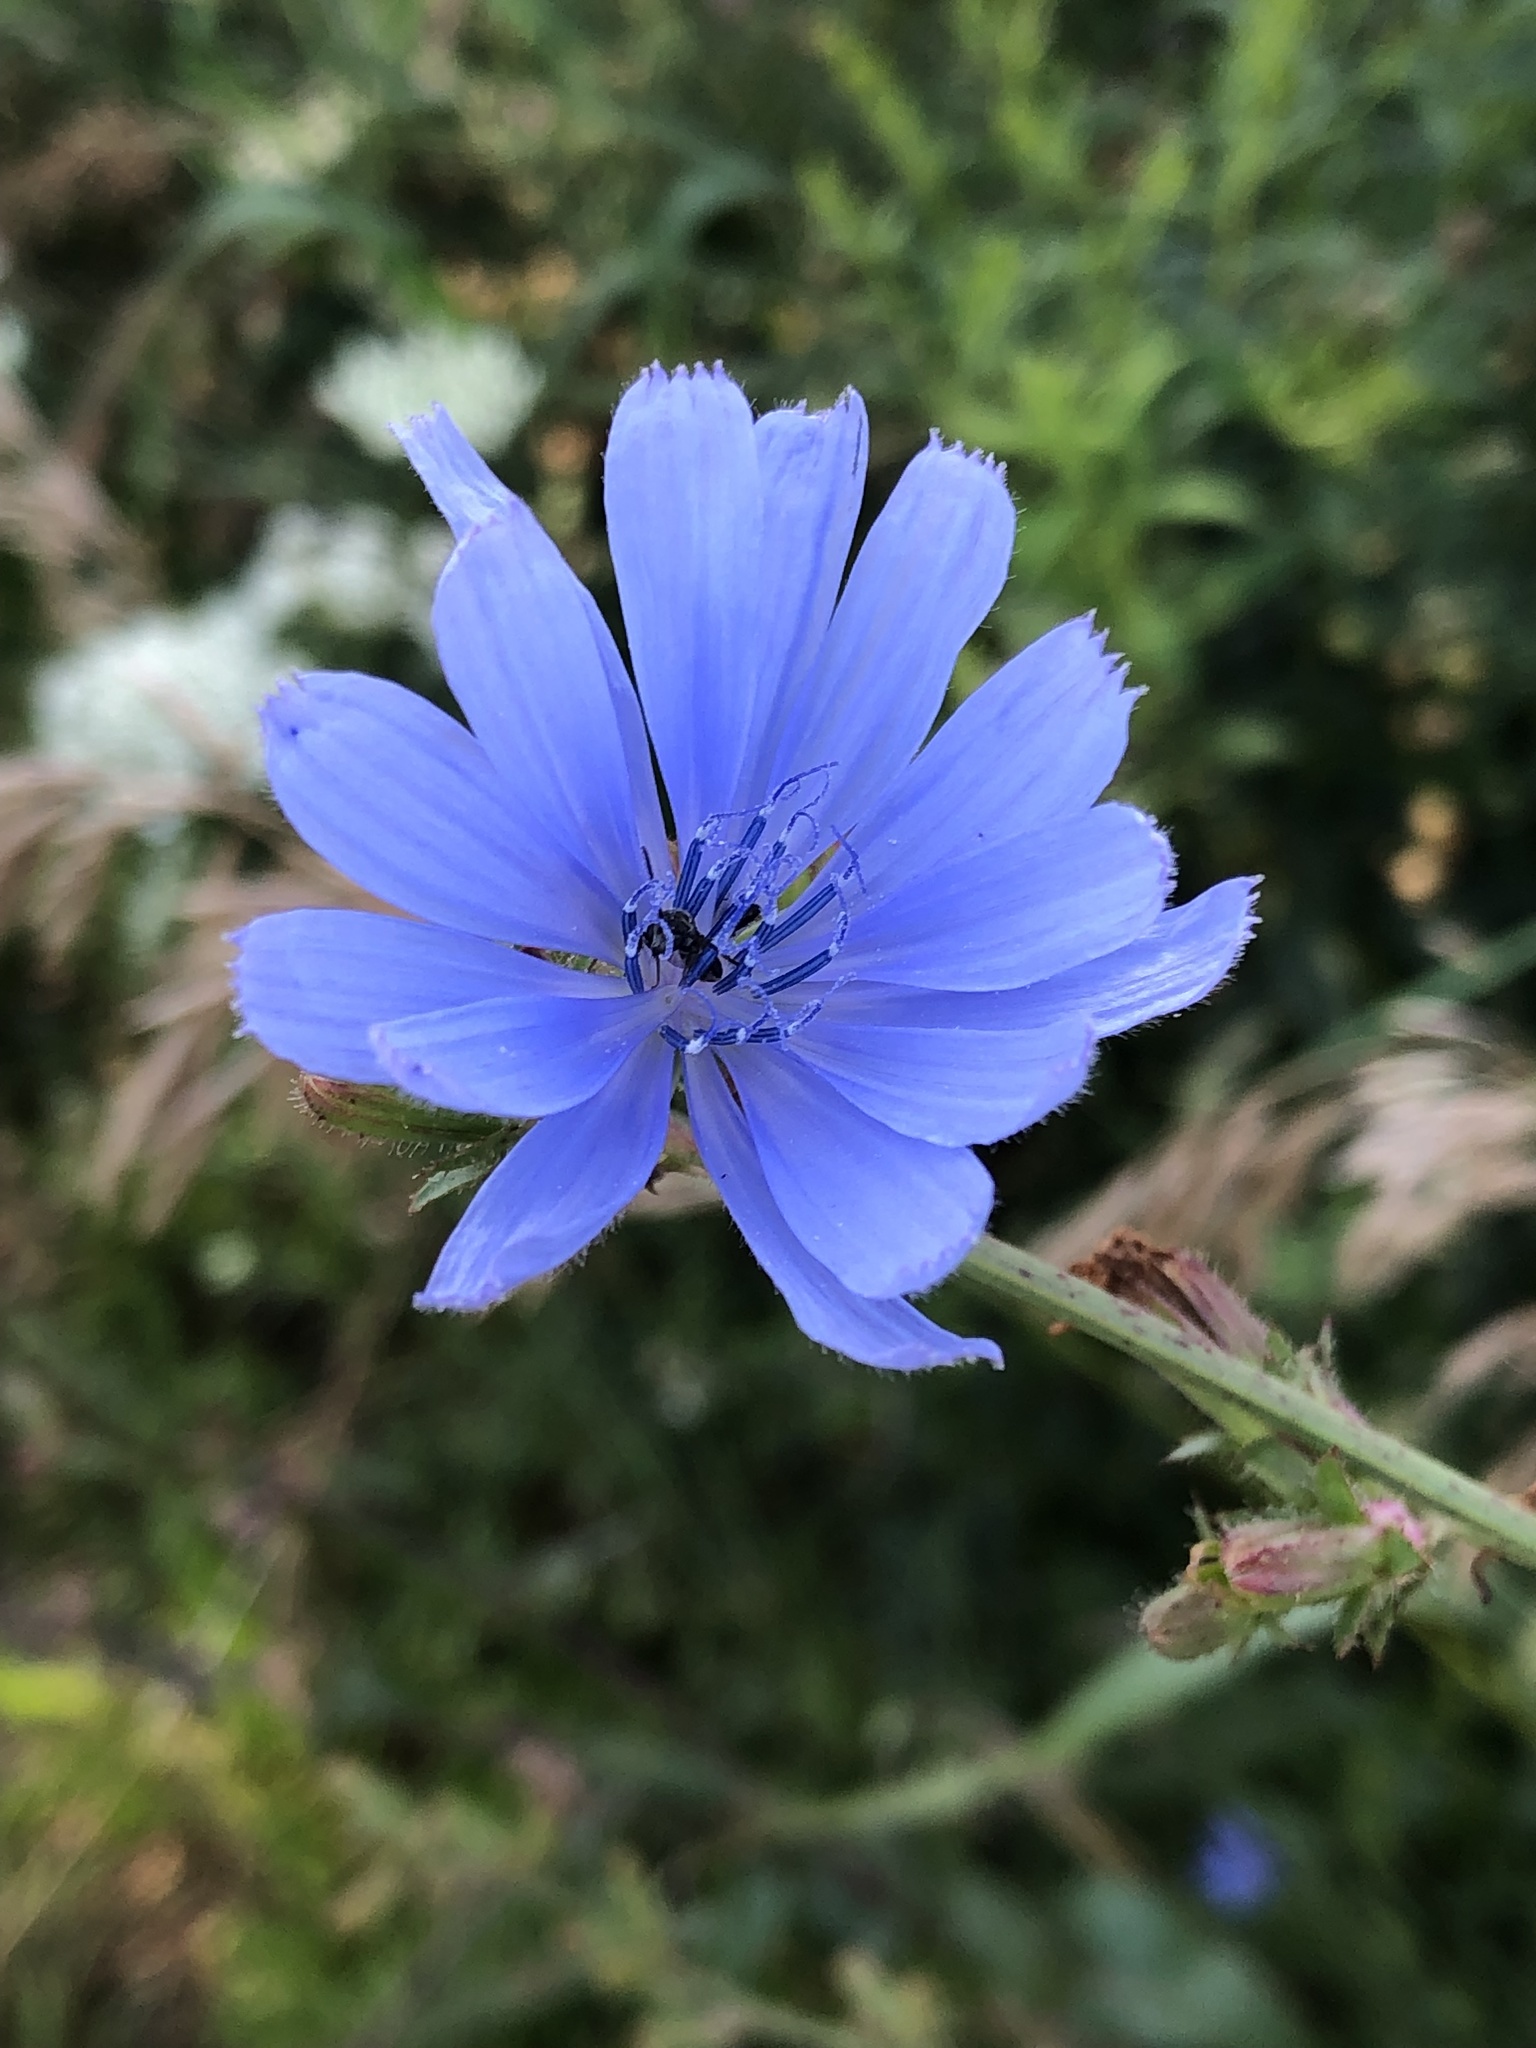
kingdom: Plantae
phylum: Tracheophyta
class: Magnoliopsida
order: Asterales
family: Asteraceae
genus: Cichorium
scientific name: Cichorium intybus
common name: Chicory
